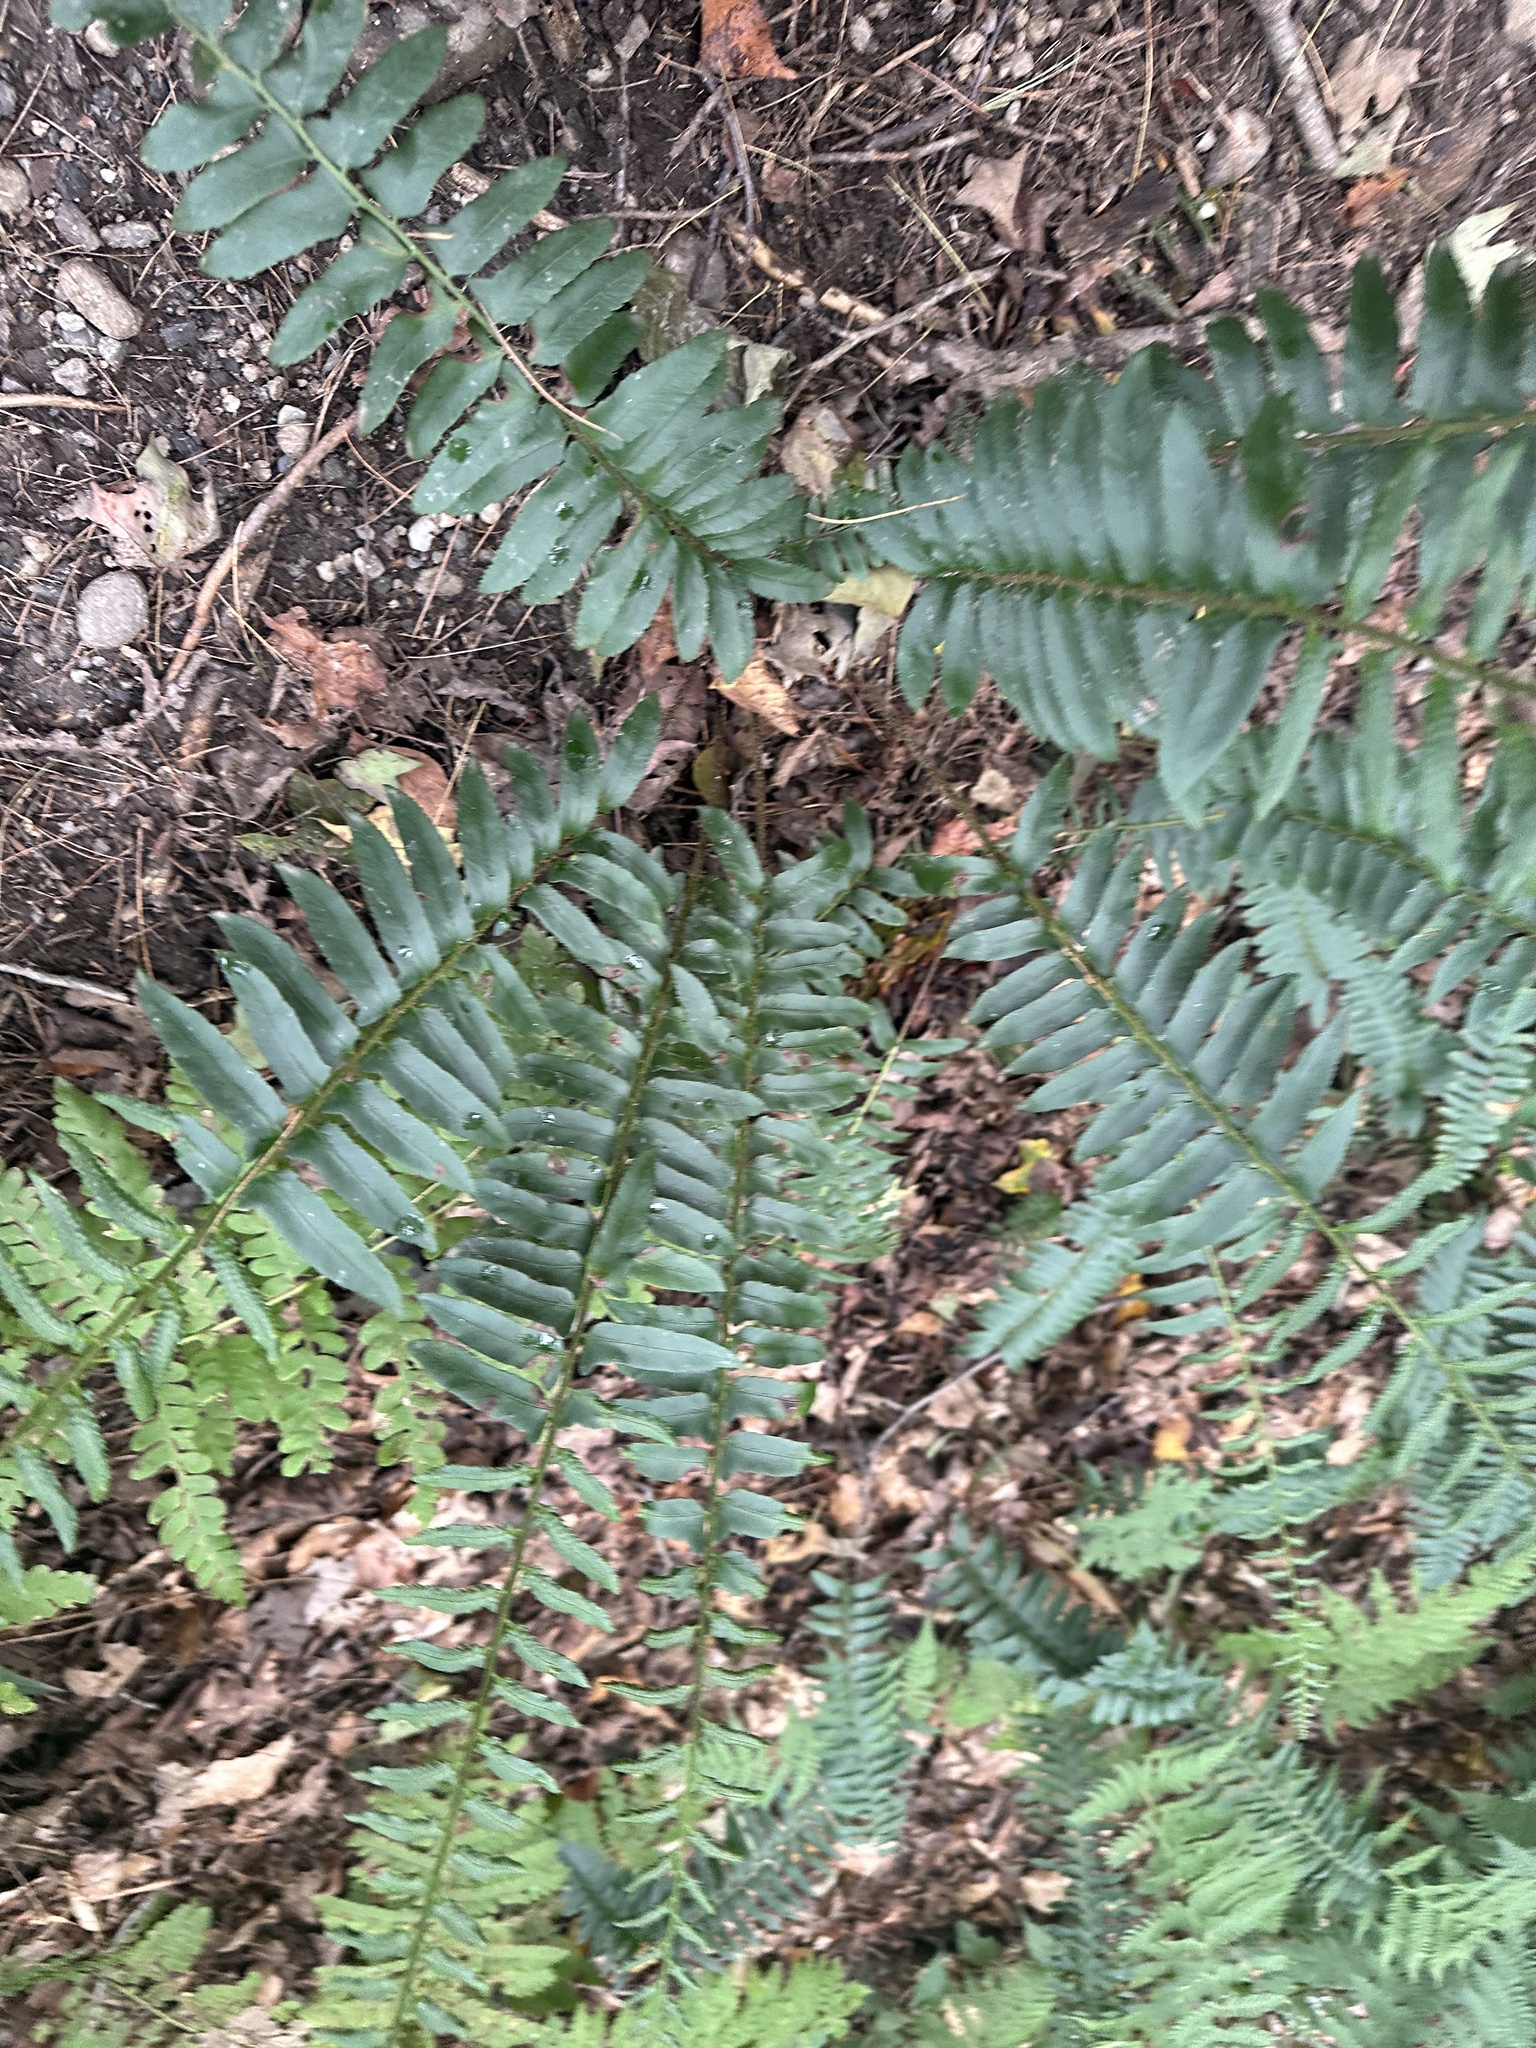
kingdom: Plantae
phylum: Tracheophyta
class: Polypodiopsida
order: Polypodiales
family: Dryopteridaceae
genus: Polystichum
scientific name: Polystichum acrostichoides
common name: Christmas fern
